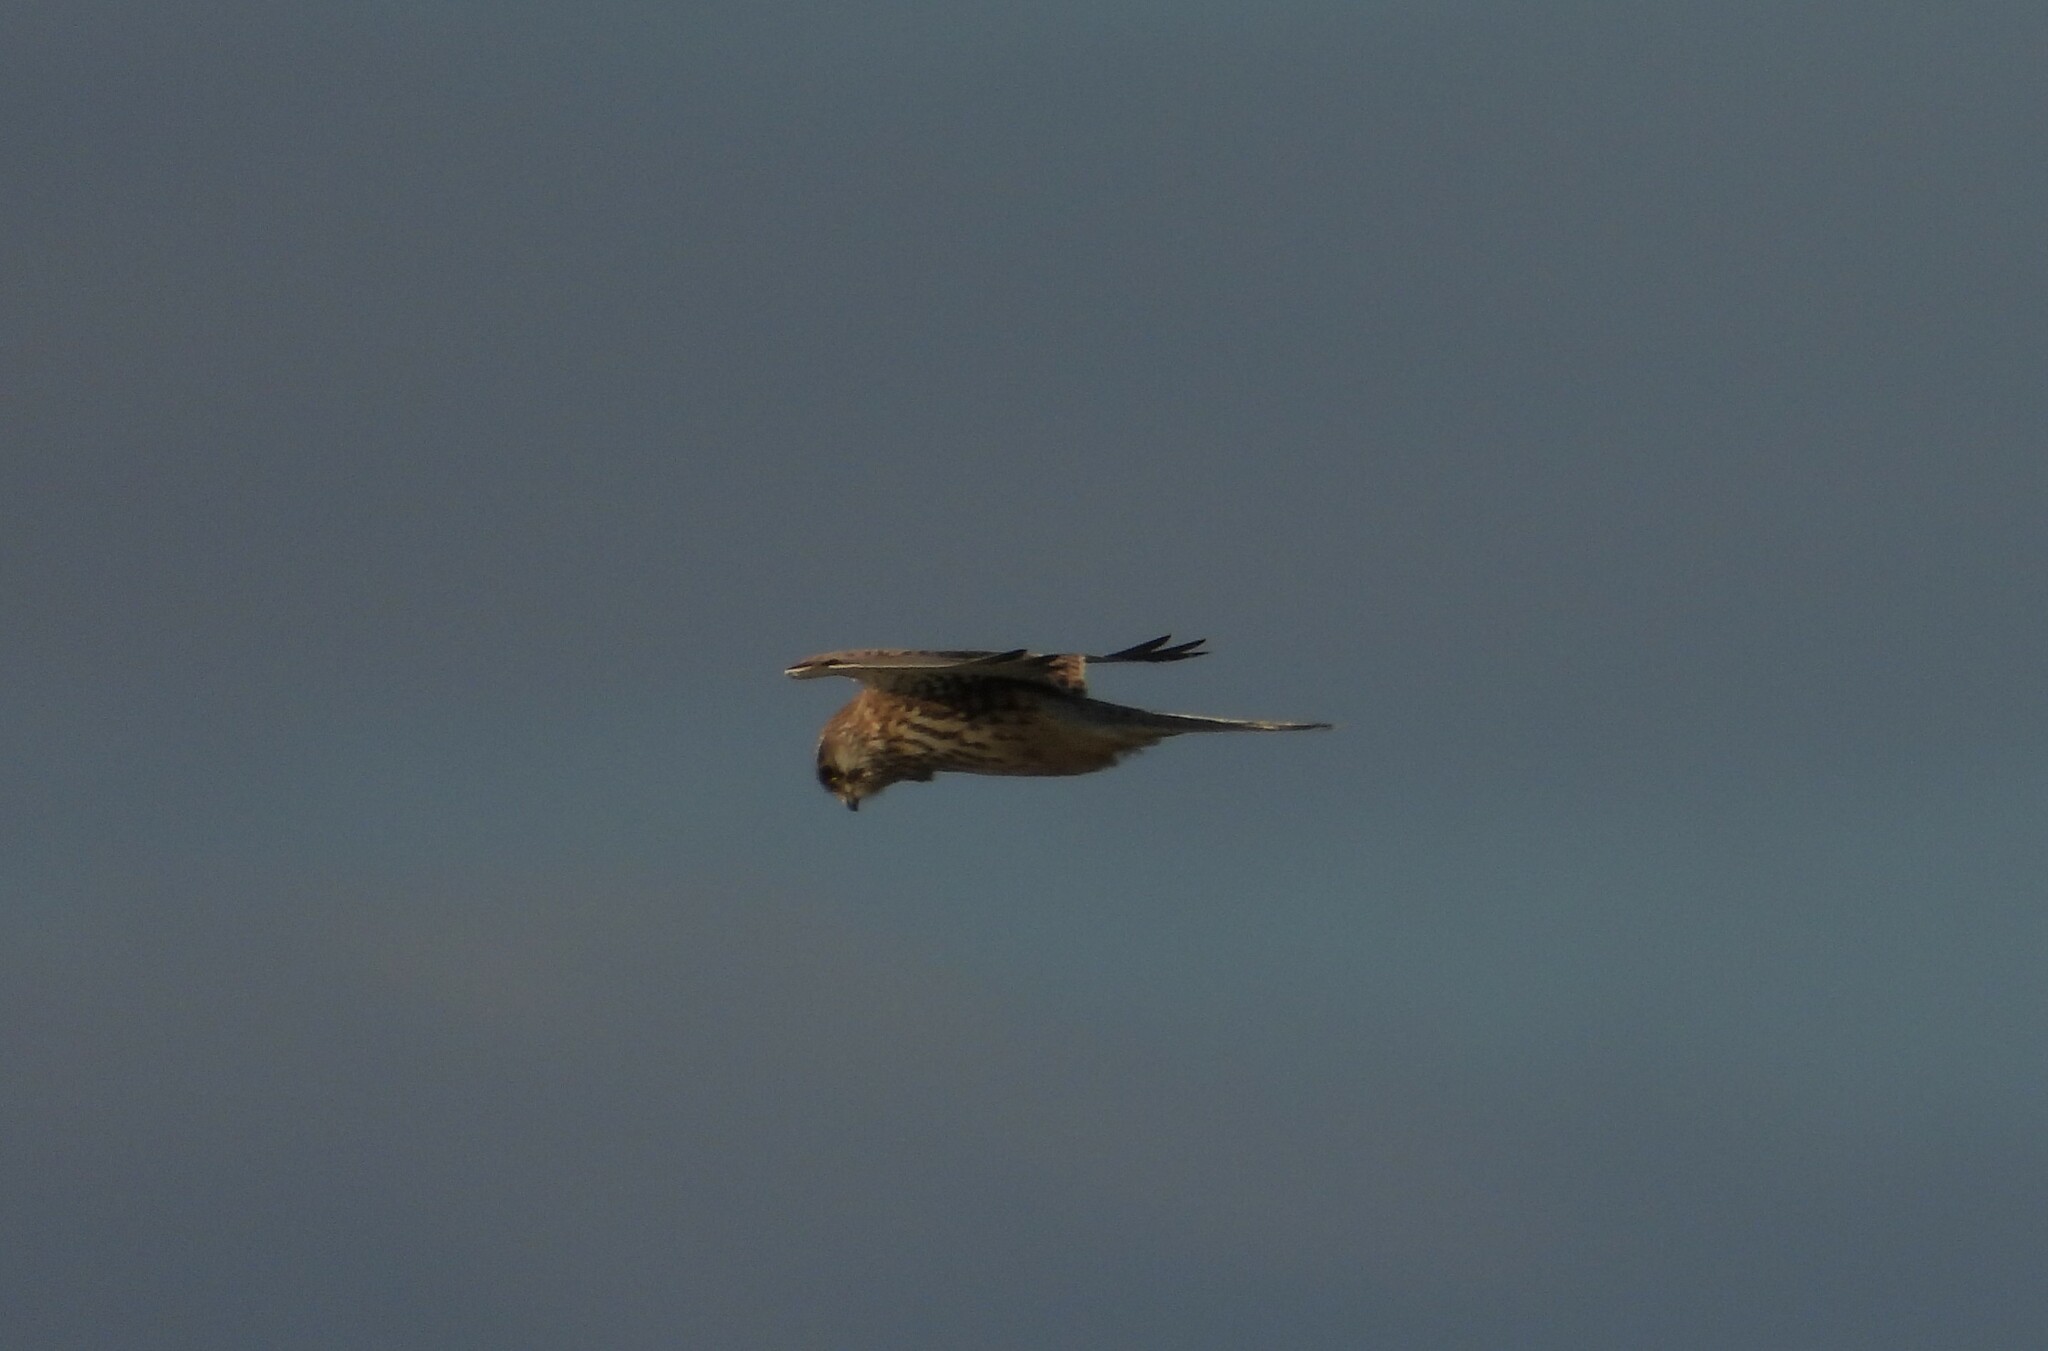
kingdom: Animalia
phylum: Chordata
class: Aves
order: Falconiformes
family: Falconidae
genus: Falco
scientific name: Falco tinnunculus
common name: Common kestrel
